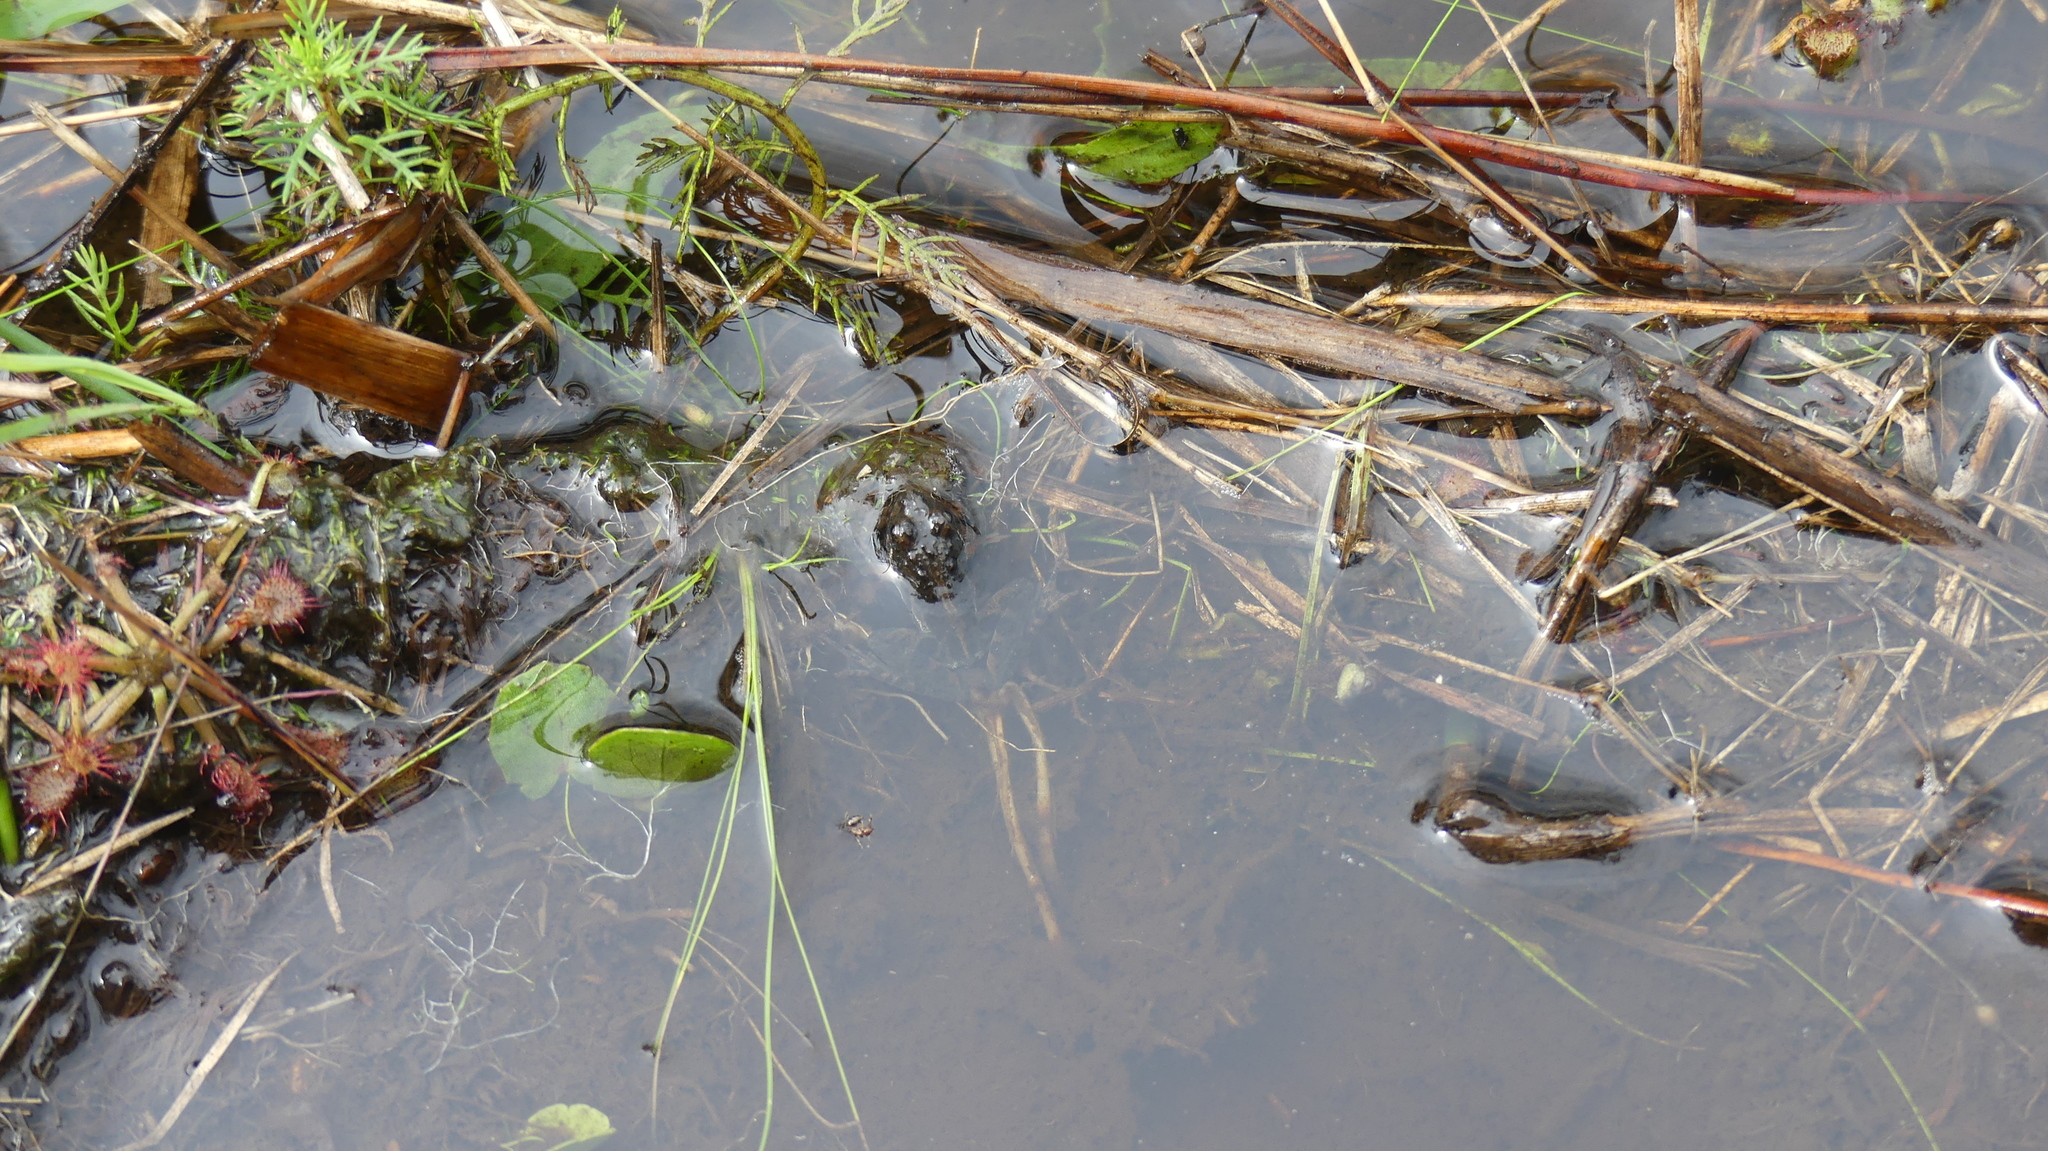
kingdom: Animalia
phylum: Chordata
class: Amphibia
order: Anura
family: Hylidae
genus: Acris
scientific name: Acris gryllus
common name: Southern cricket frog
